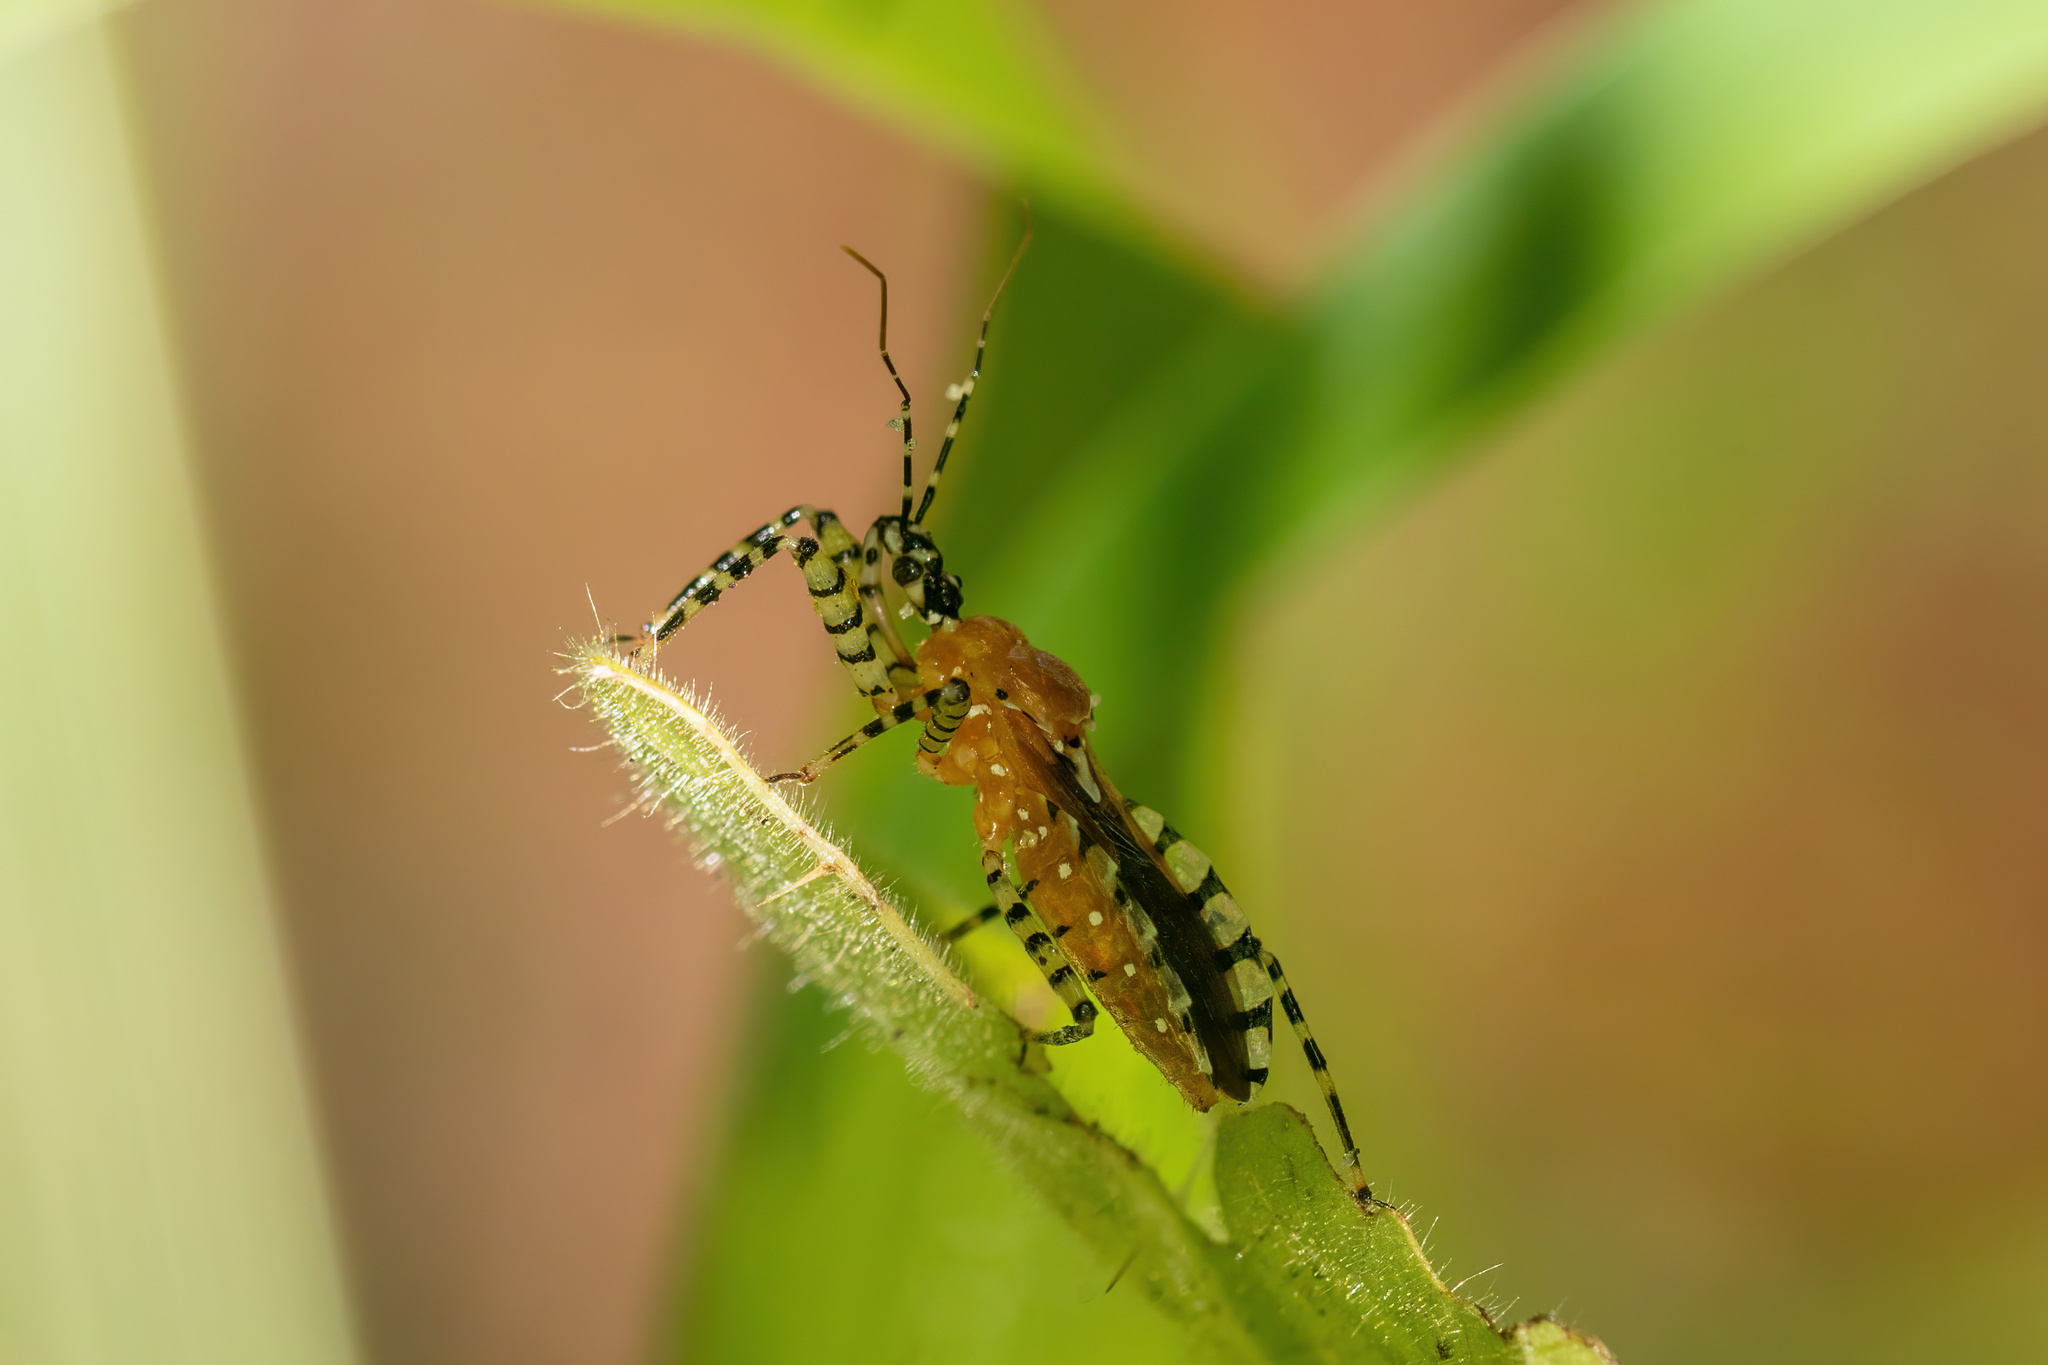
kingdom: Animalia
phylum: Arthropoda
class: Insecta
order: Hemiptera
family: Reduviidae
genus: Pselliopus
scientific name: Pselliopus cinctus
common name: Ringed assassin bug
